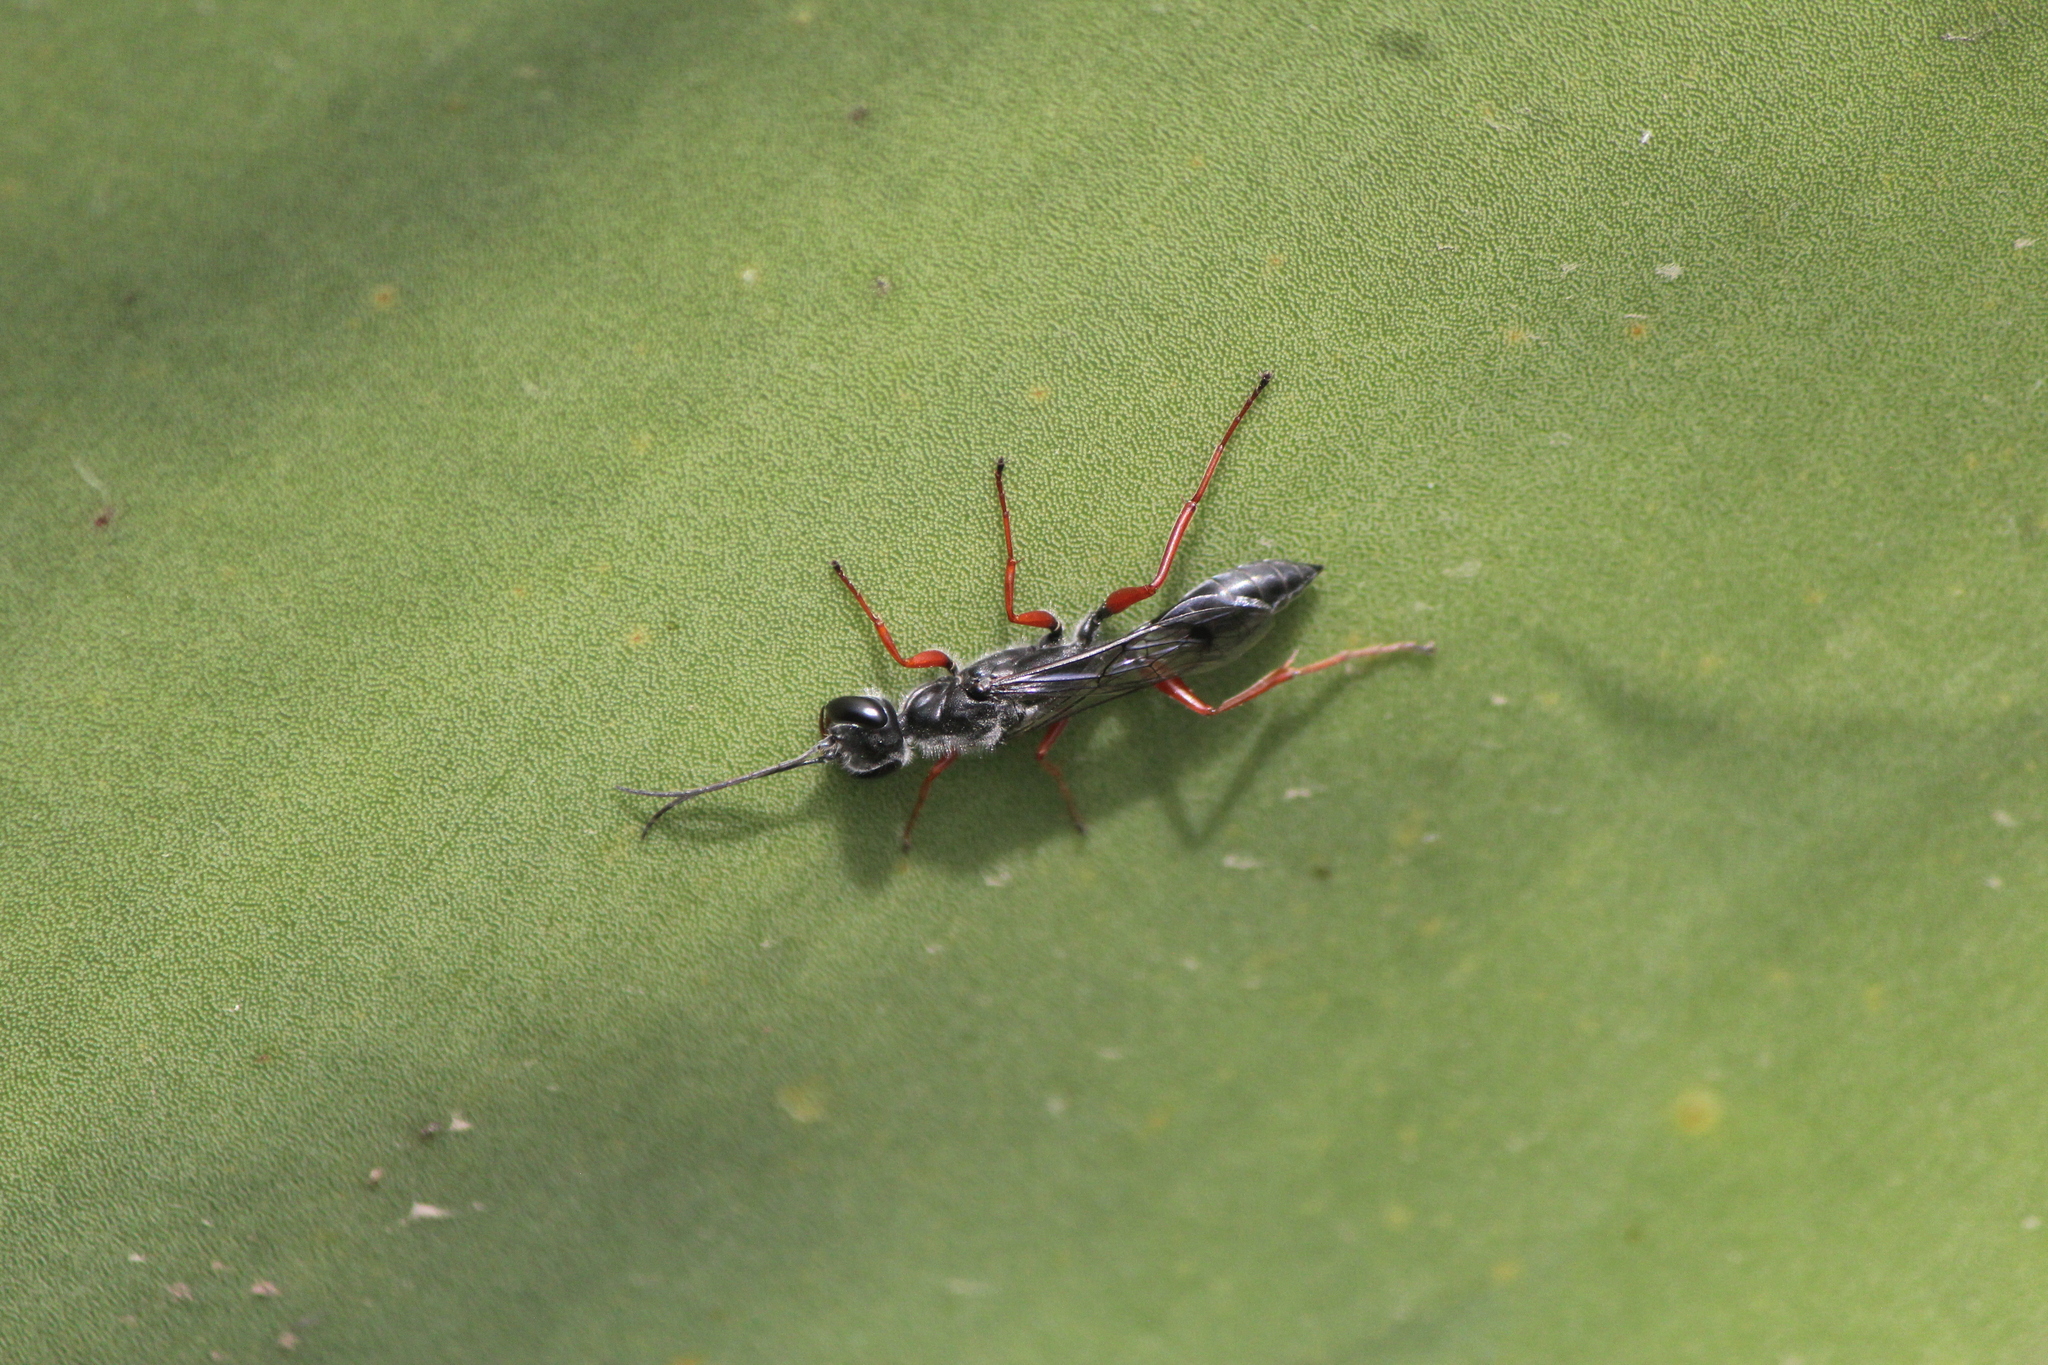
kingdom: Animalia
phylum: Arthropoda
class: Insecta
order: Hymenoptera
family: Sphecidae
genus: Podium
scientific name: Podium rufipes
